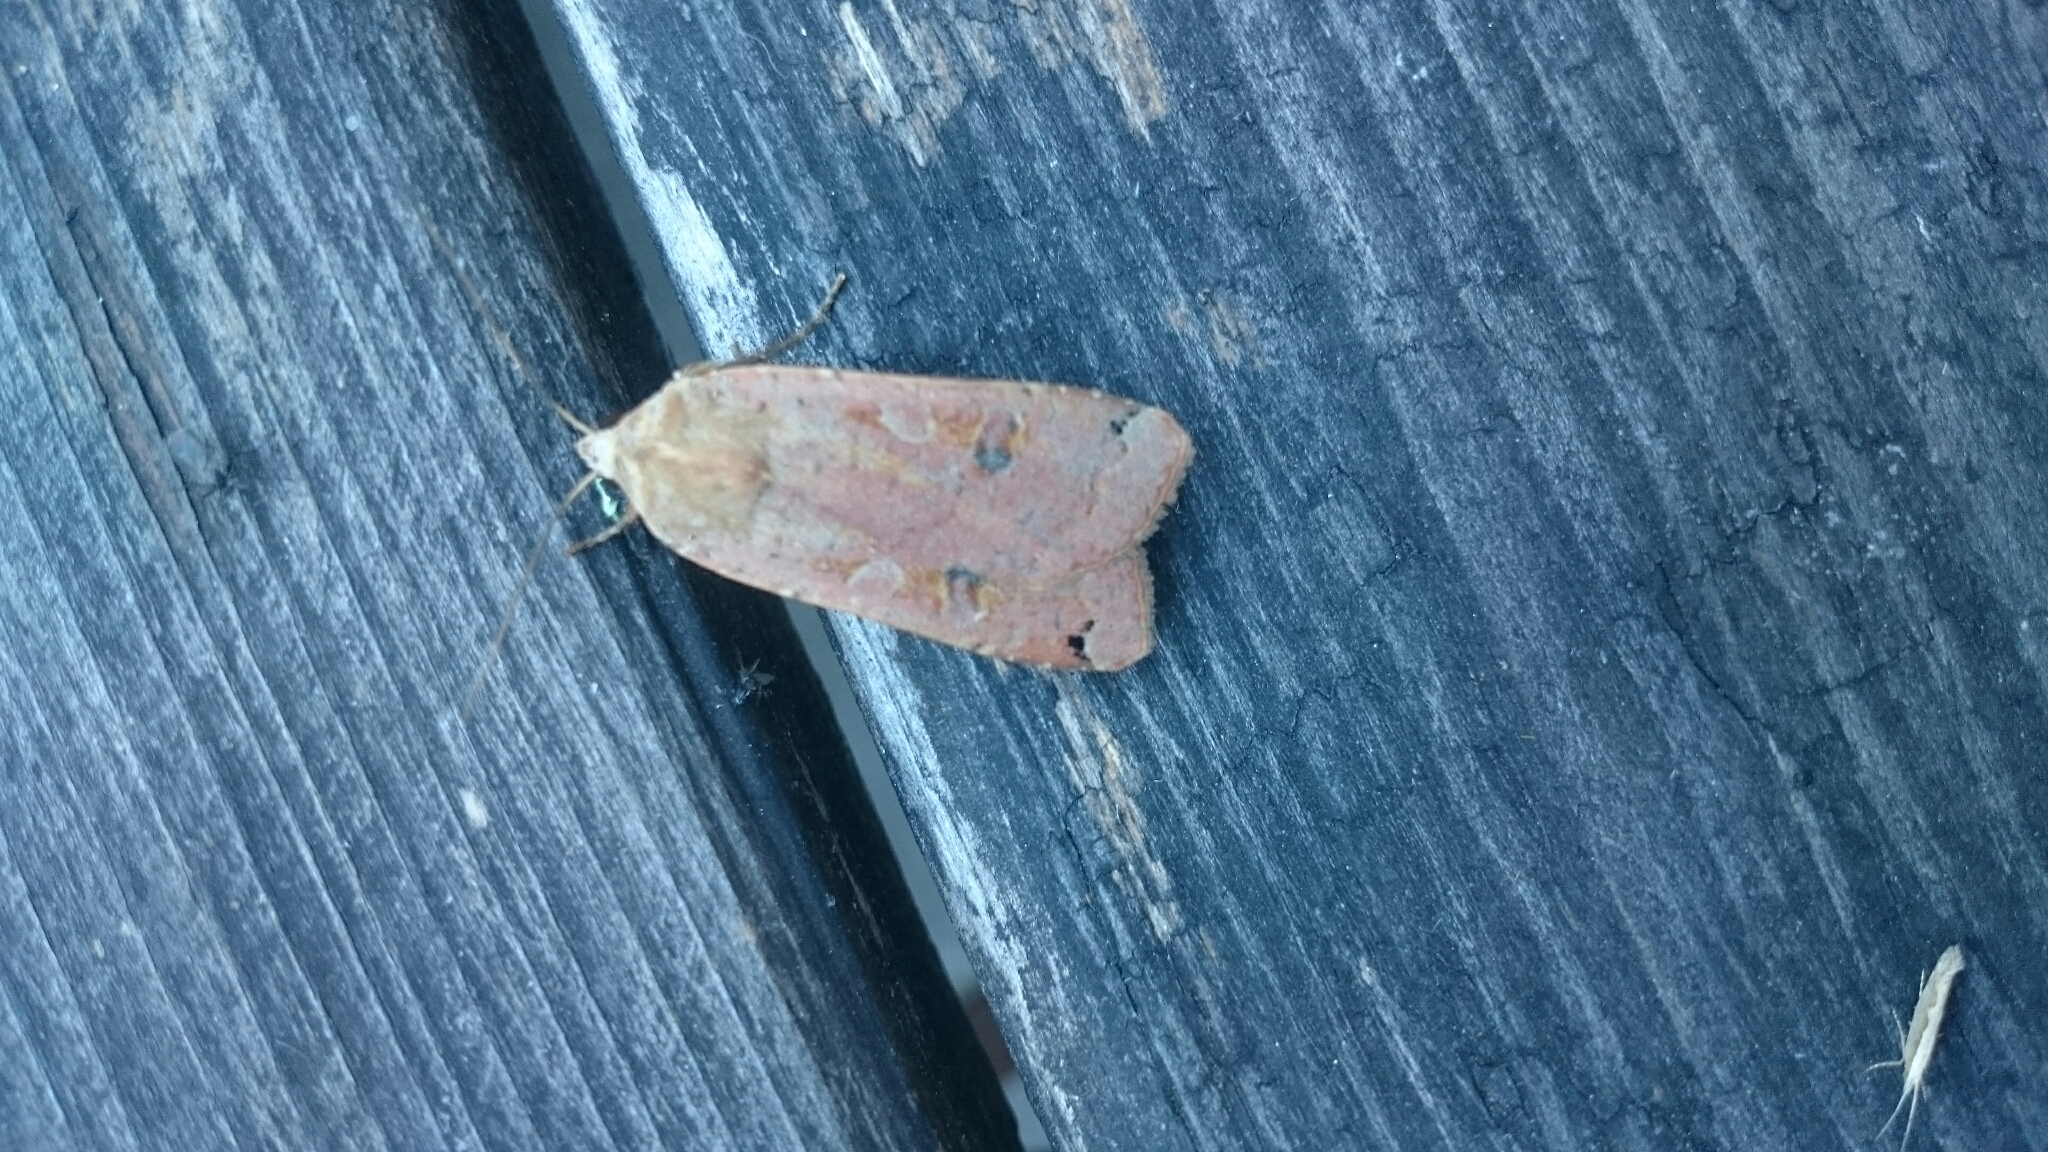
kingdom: Animalia
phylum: Arthropoda
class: Insecta
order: Lepidoptera
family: Noctuidae
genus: Noctua
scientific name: Noctua pronuba
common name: Large yellow underwing
